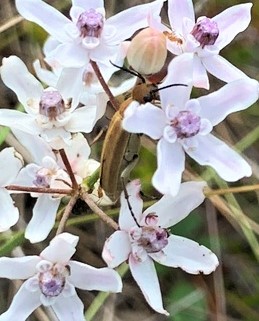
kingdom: Animalia
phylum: Arthropoda
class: Insecta
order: Coleoptera
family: Meloidae
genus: Epicauta
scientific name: Epicauta strigosa
